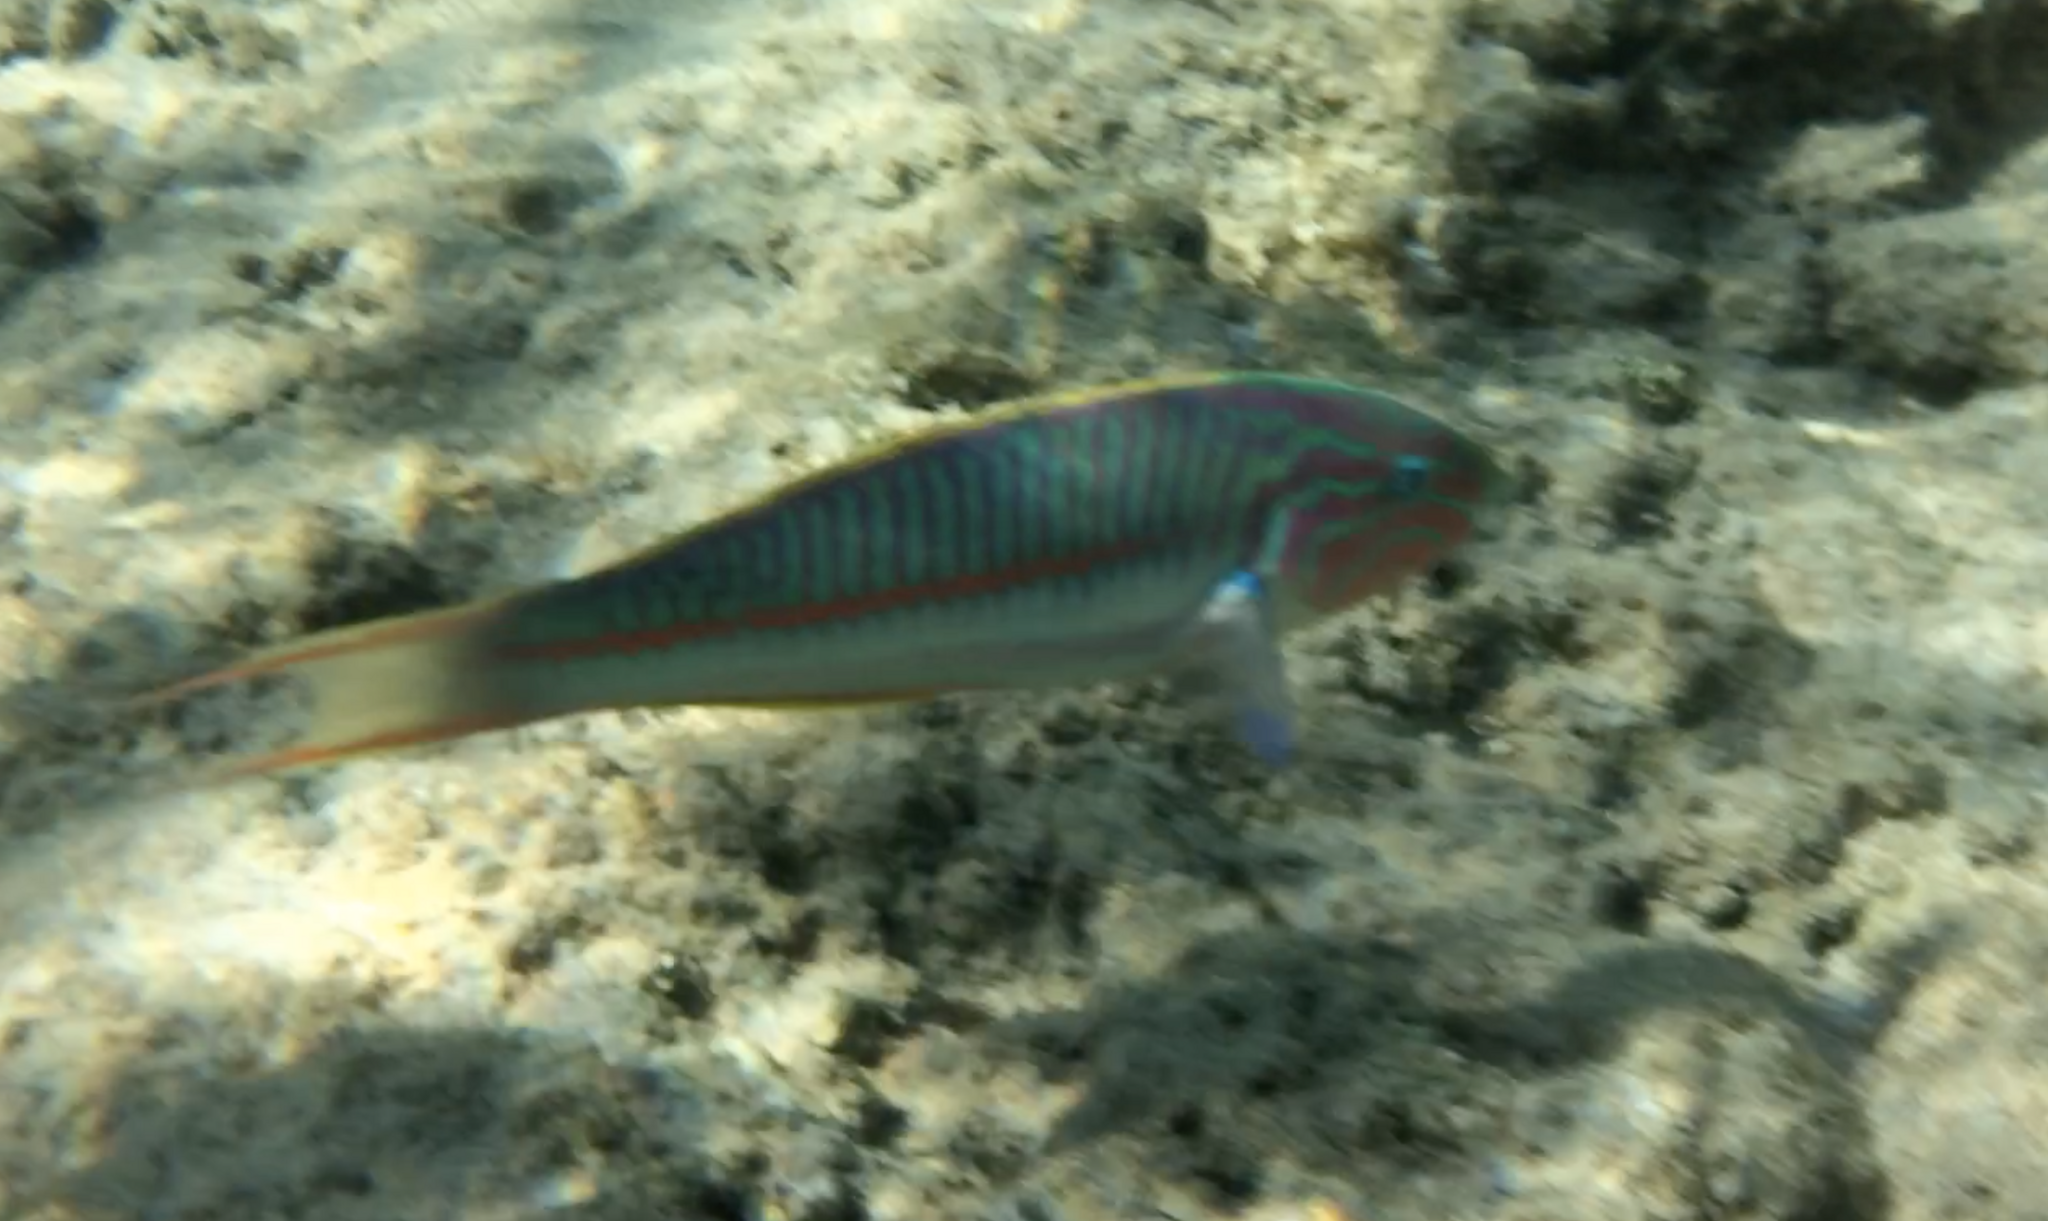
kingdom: Animalia
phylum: Chordata
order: Perciformes
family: Labridae
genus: Thalassoma
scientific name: Thalassoma rueppellii
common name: Klunzinger's wrasse
